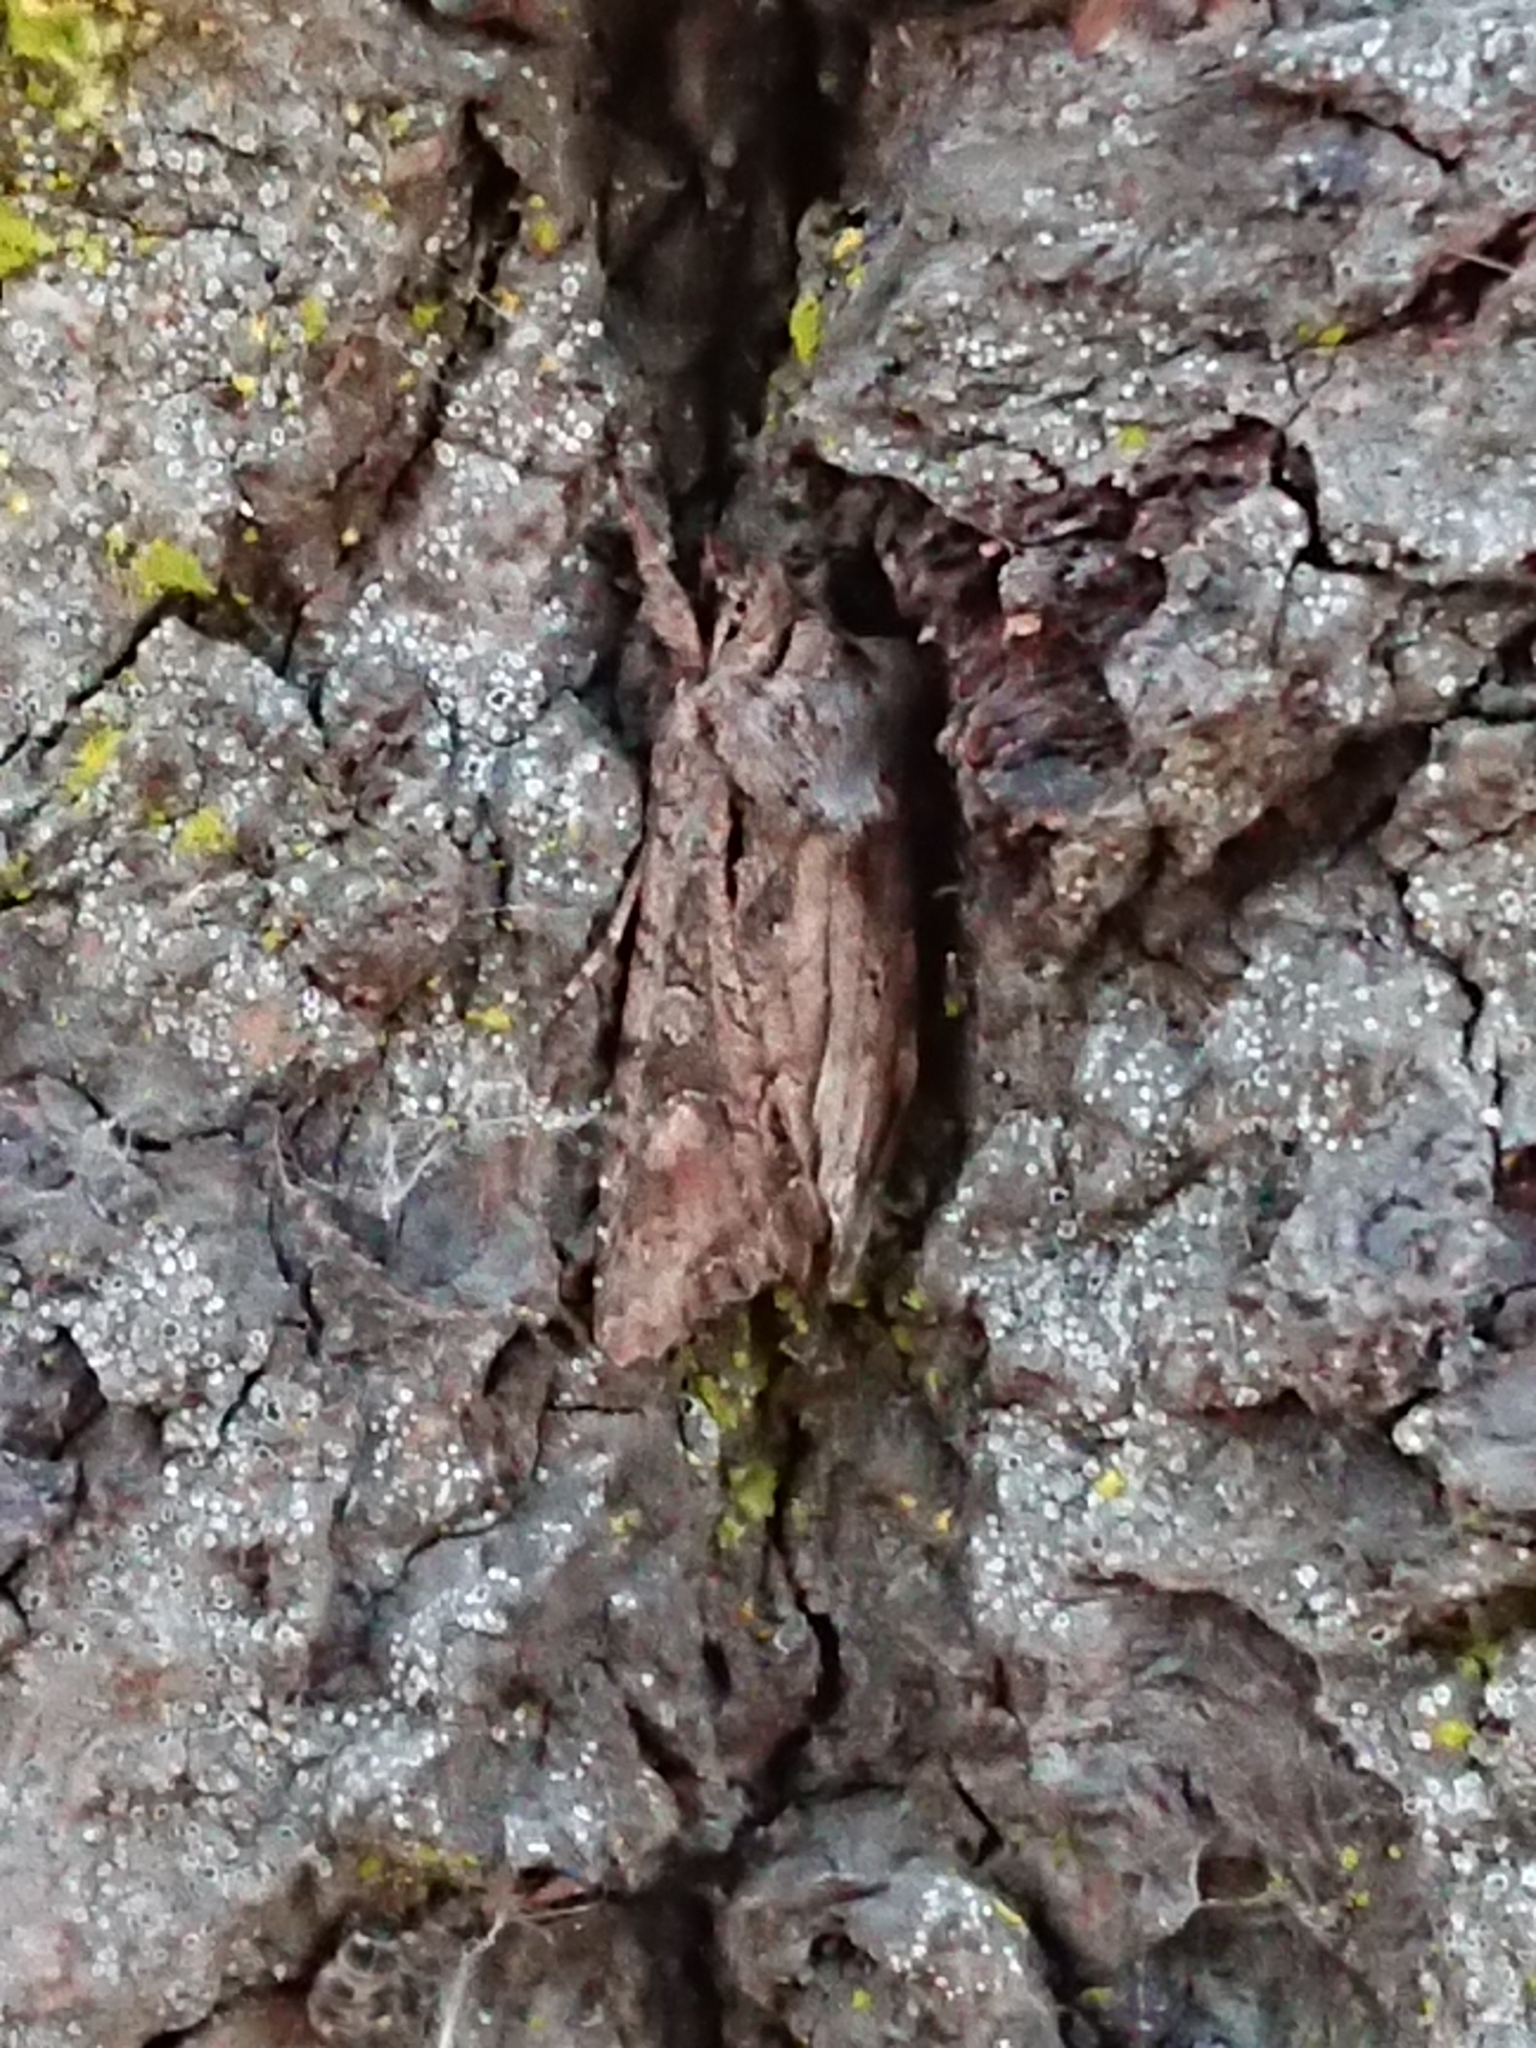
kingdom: Animalia
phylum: Arthropoda
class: Insecta
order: Lepidoptera
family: Noctuidae
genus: Ichneutica
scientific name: Ichneutica mutans
